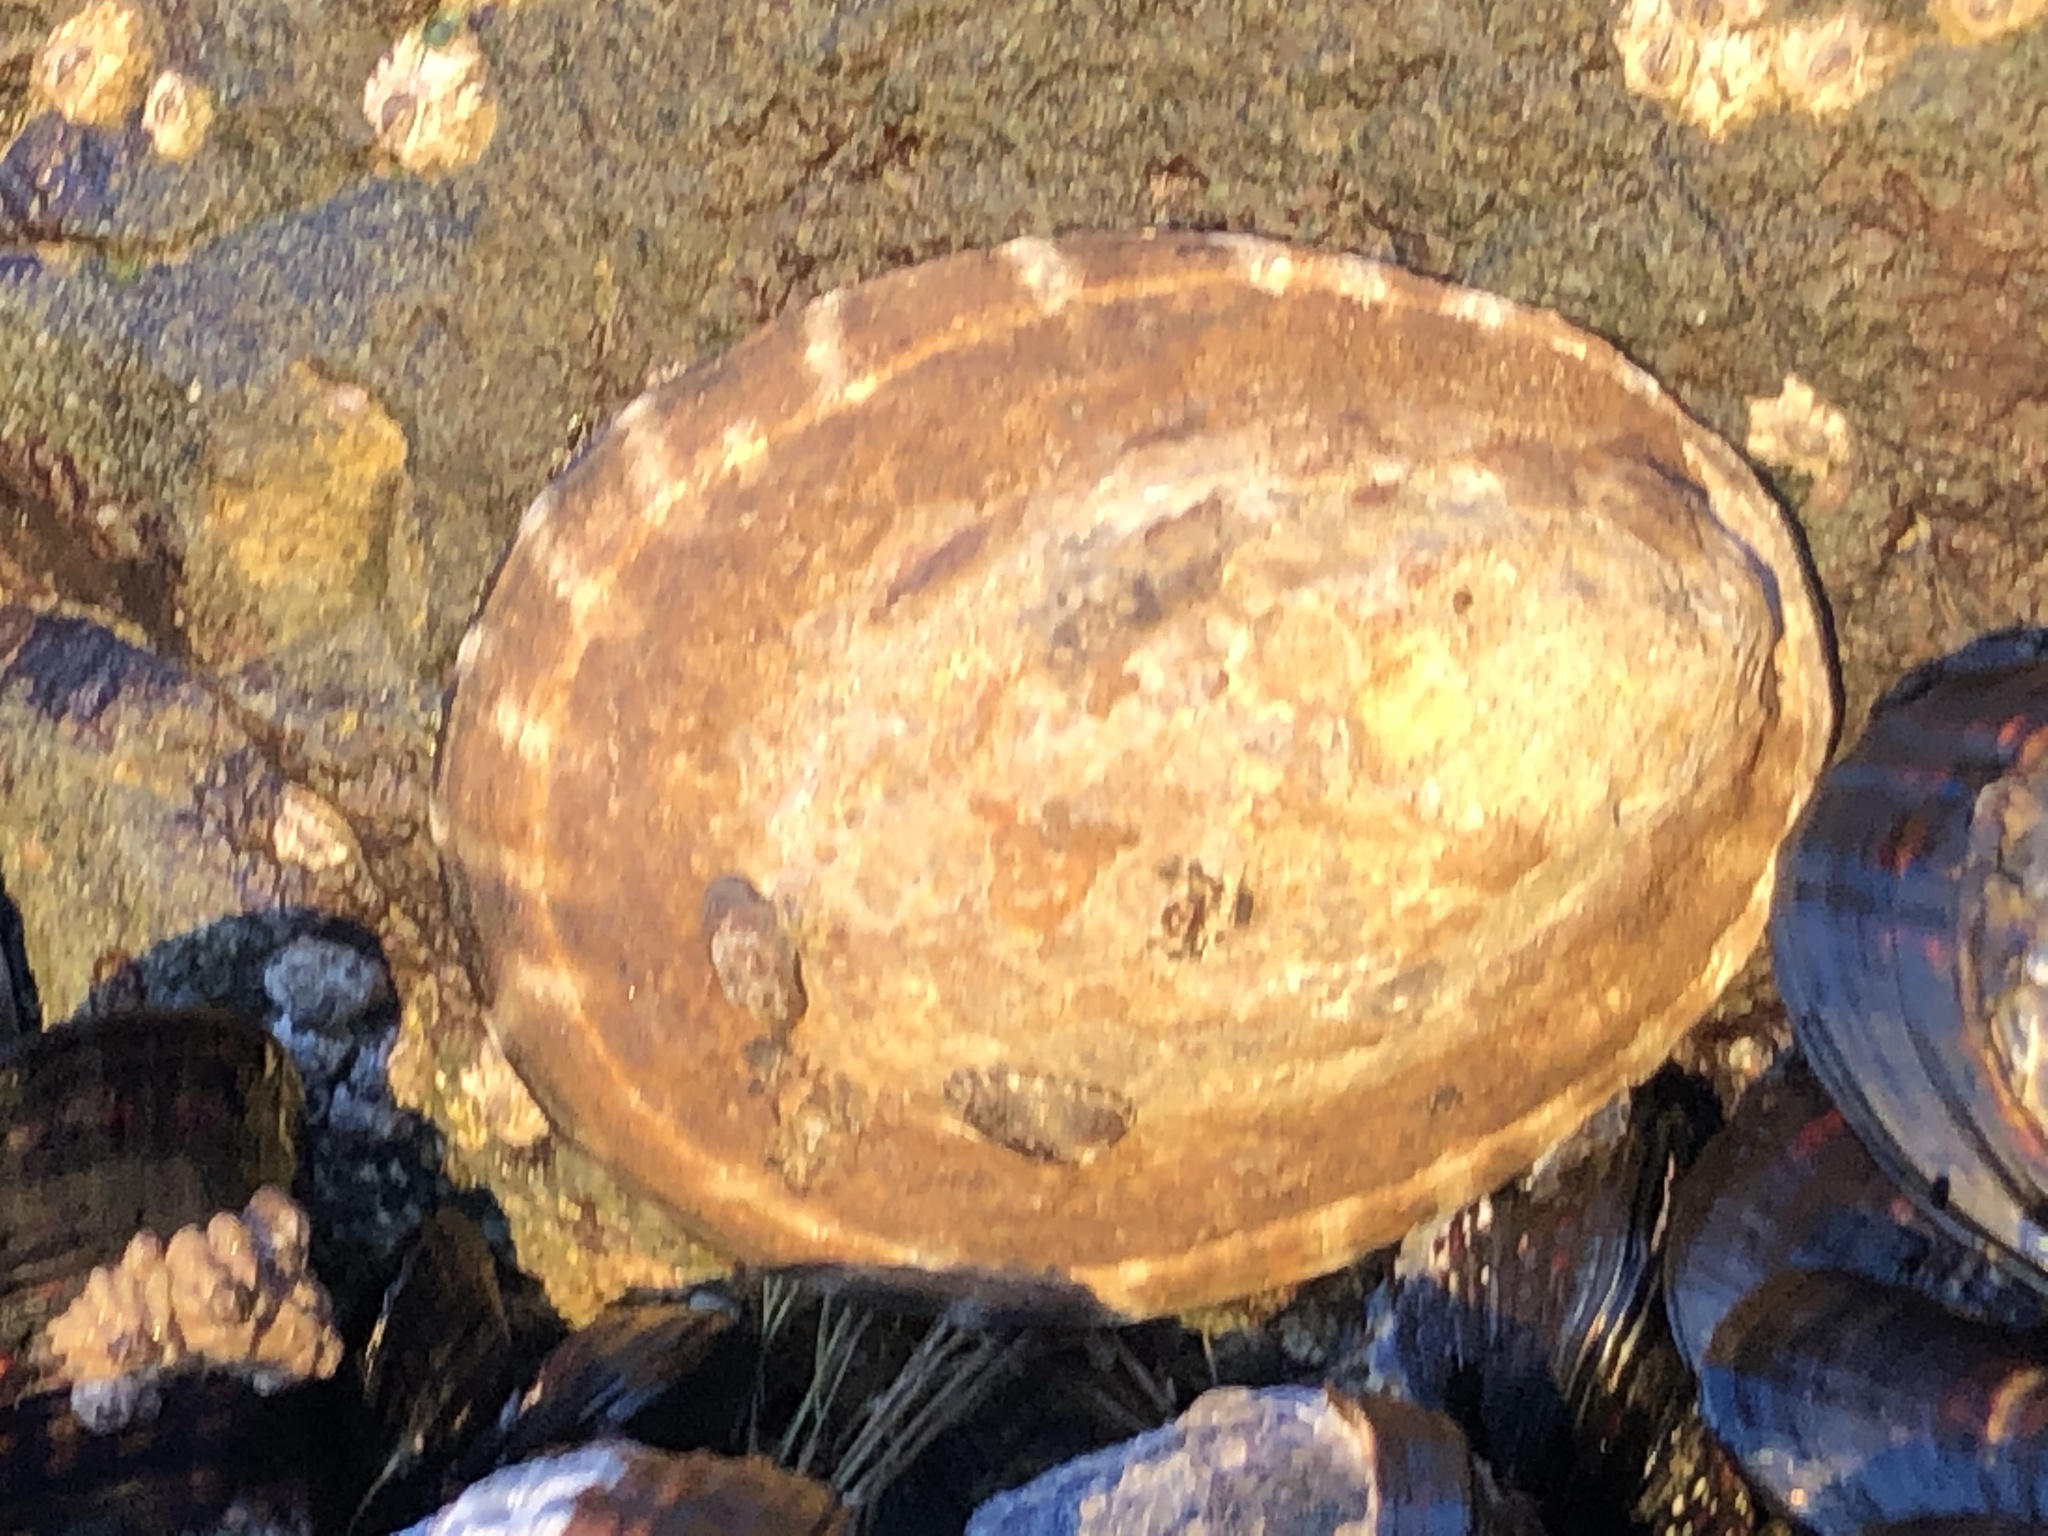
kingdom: Animalia
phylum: Mollusca
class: Gastropoda
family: Lottiidae
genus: Lottia
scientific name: Lottia gigantea
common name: Owl limpet
